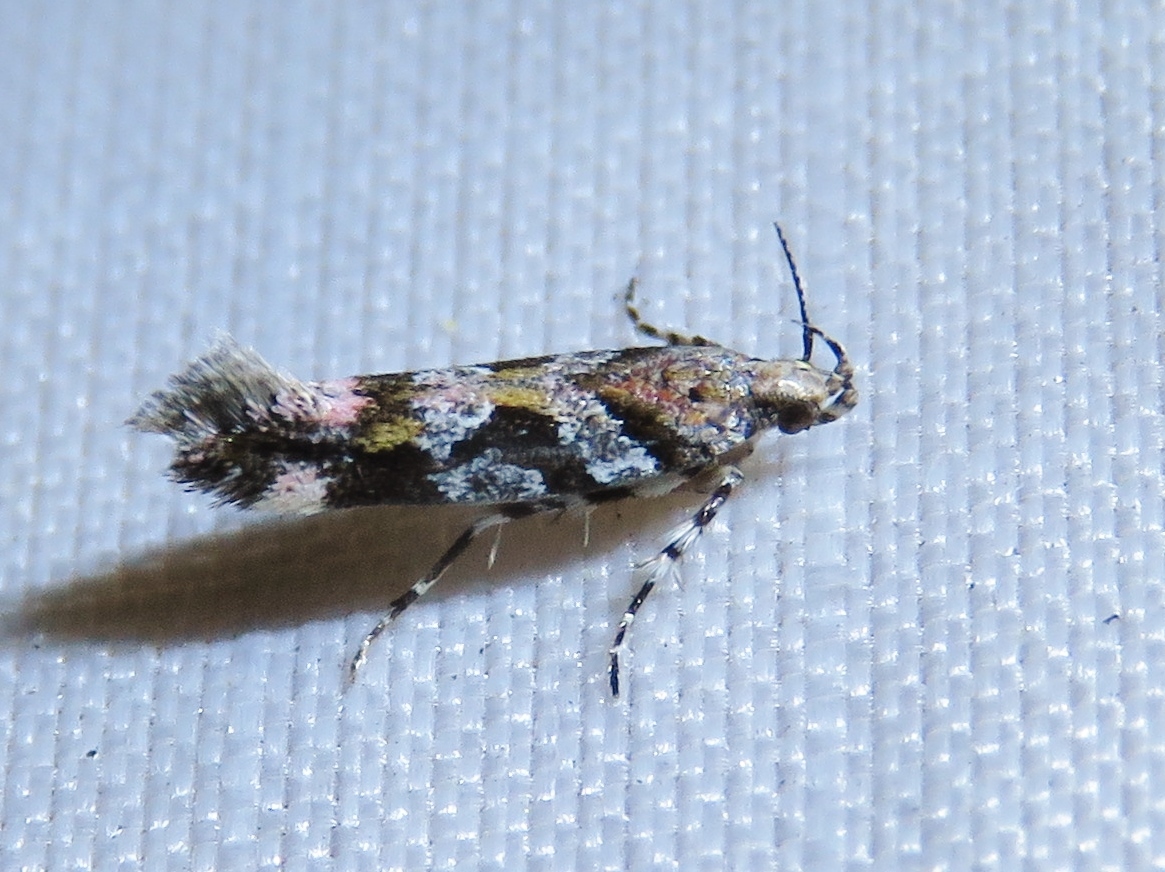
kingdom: Animalia
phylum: Arthropoda
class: Insecta
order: Lepidoptera
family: Gelechiidae
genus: Aristotelia
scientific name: Aristotelia roseosuffusella
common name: Pink-washed aristotelia moth
